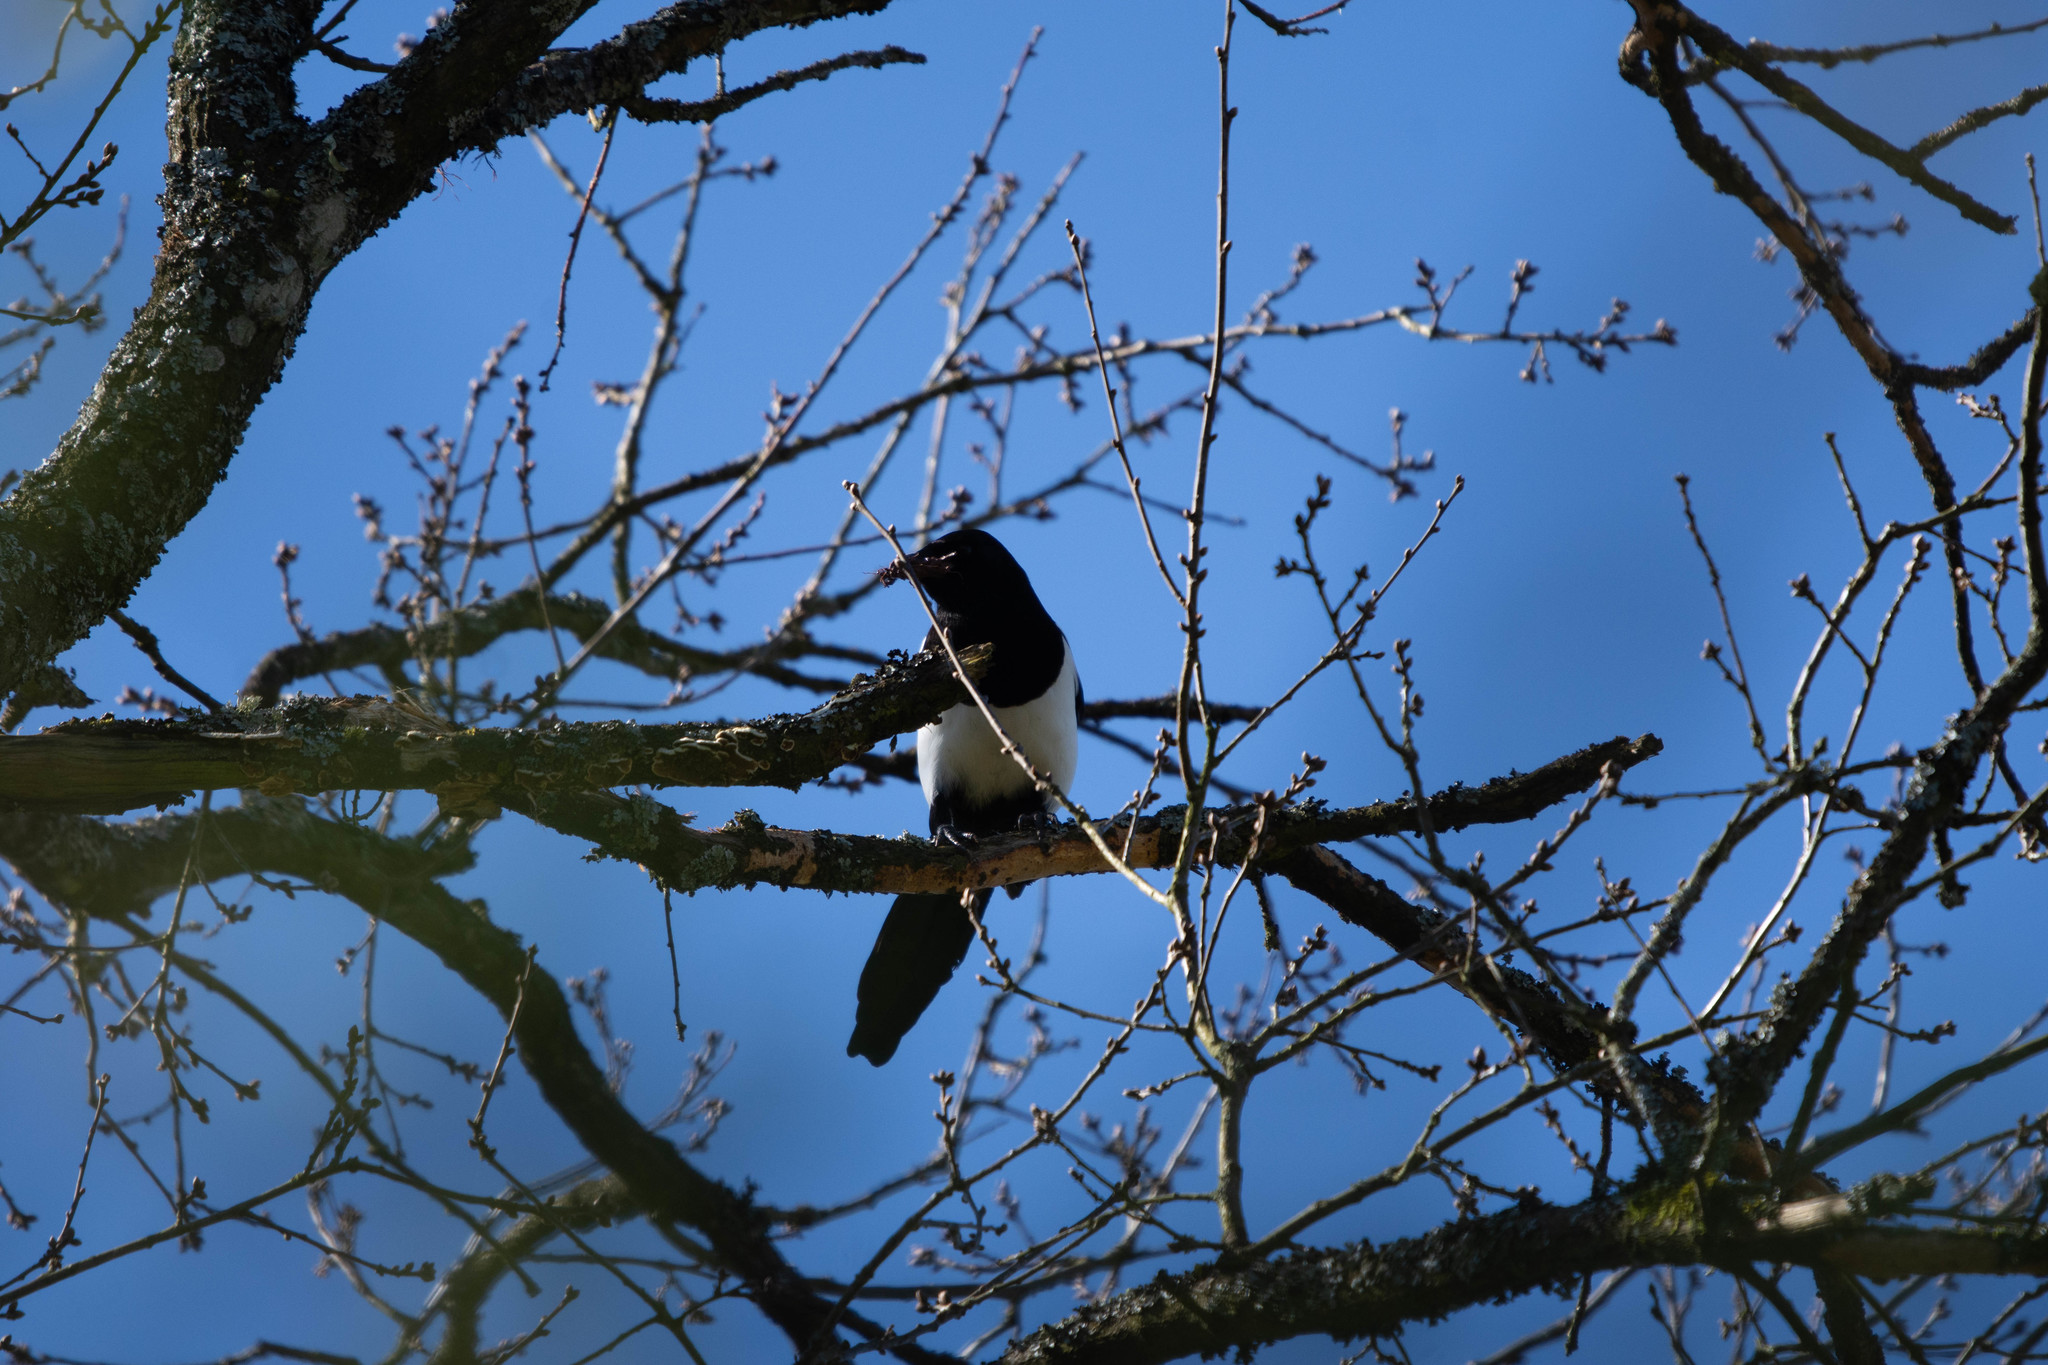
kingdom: Animalia
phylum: Chordata
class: Aves
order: Passeriformes
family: Corvidae
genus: Pica
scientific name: Pica pica
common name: Eurasian magpie
